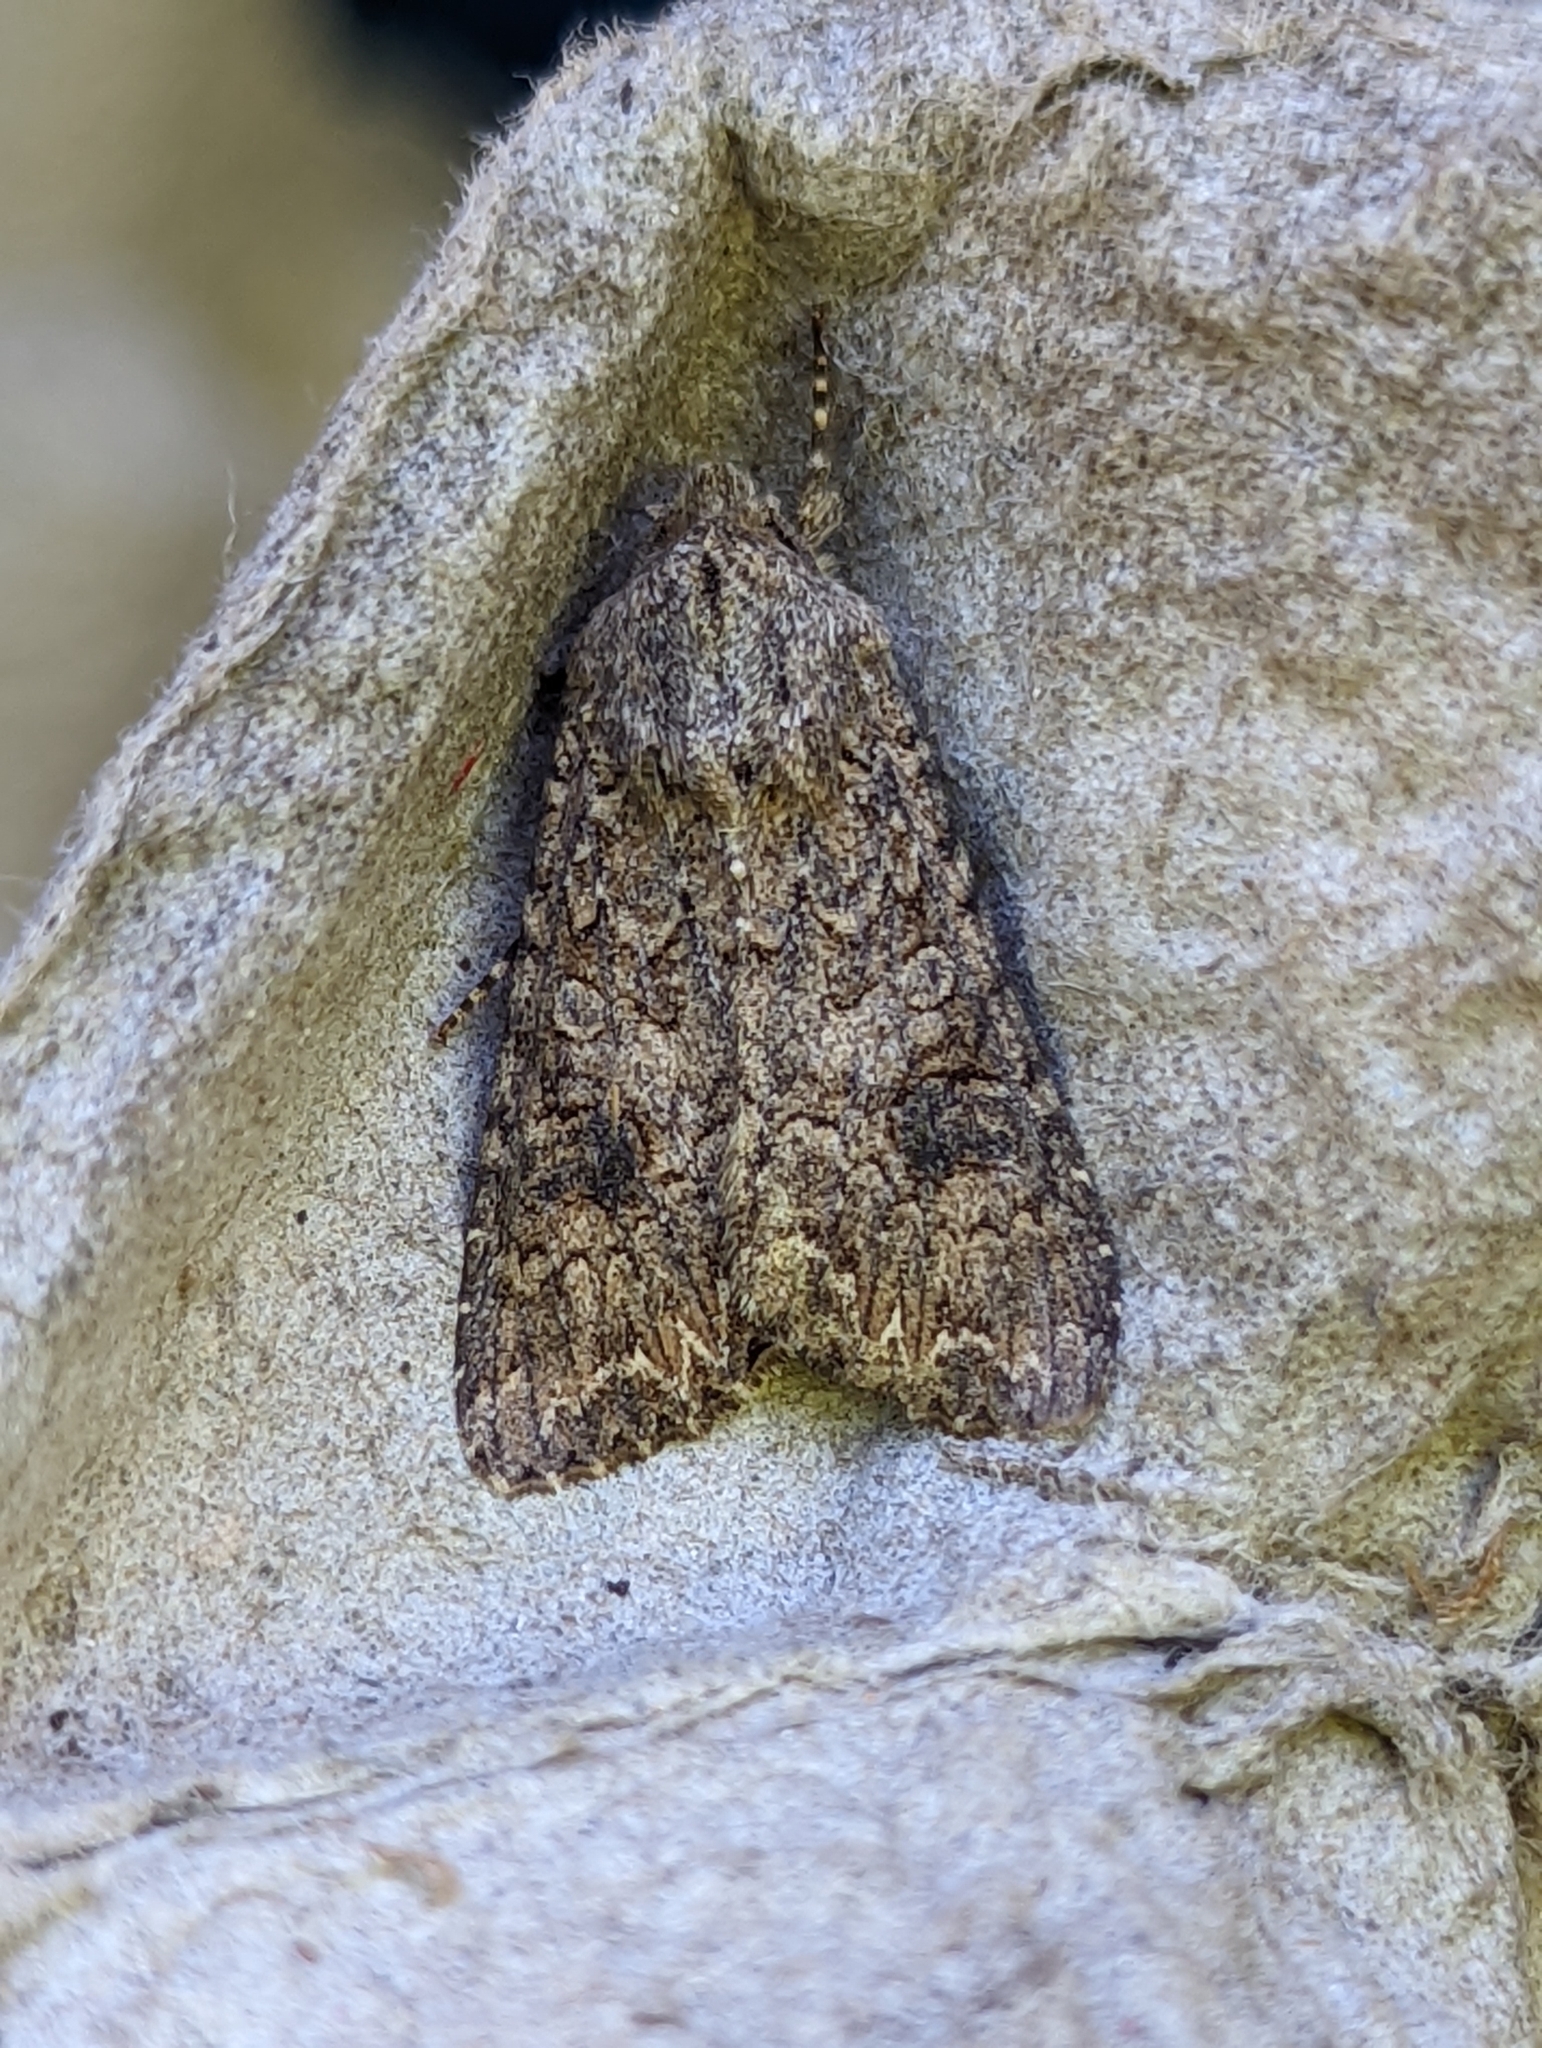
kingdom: Animalia
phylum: Arthropoda
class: Insecta
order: Lepidoptera
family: Noctuidae
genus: Anarta
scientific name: Anarta trifolii
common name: Clover cutworm moth
